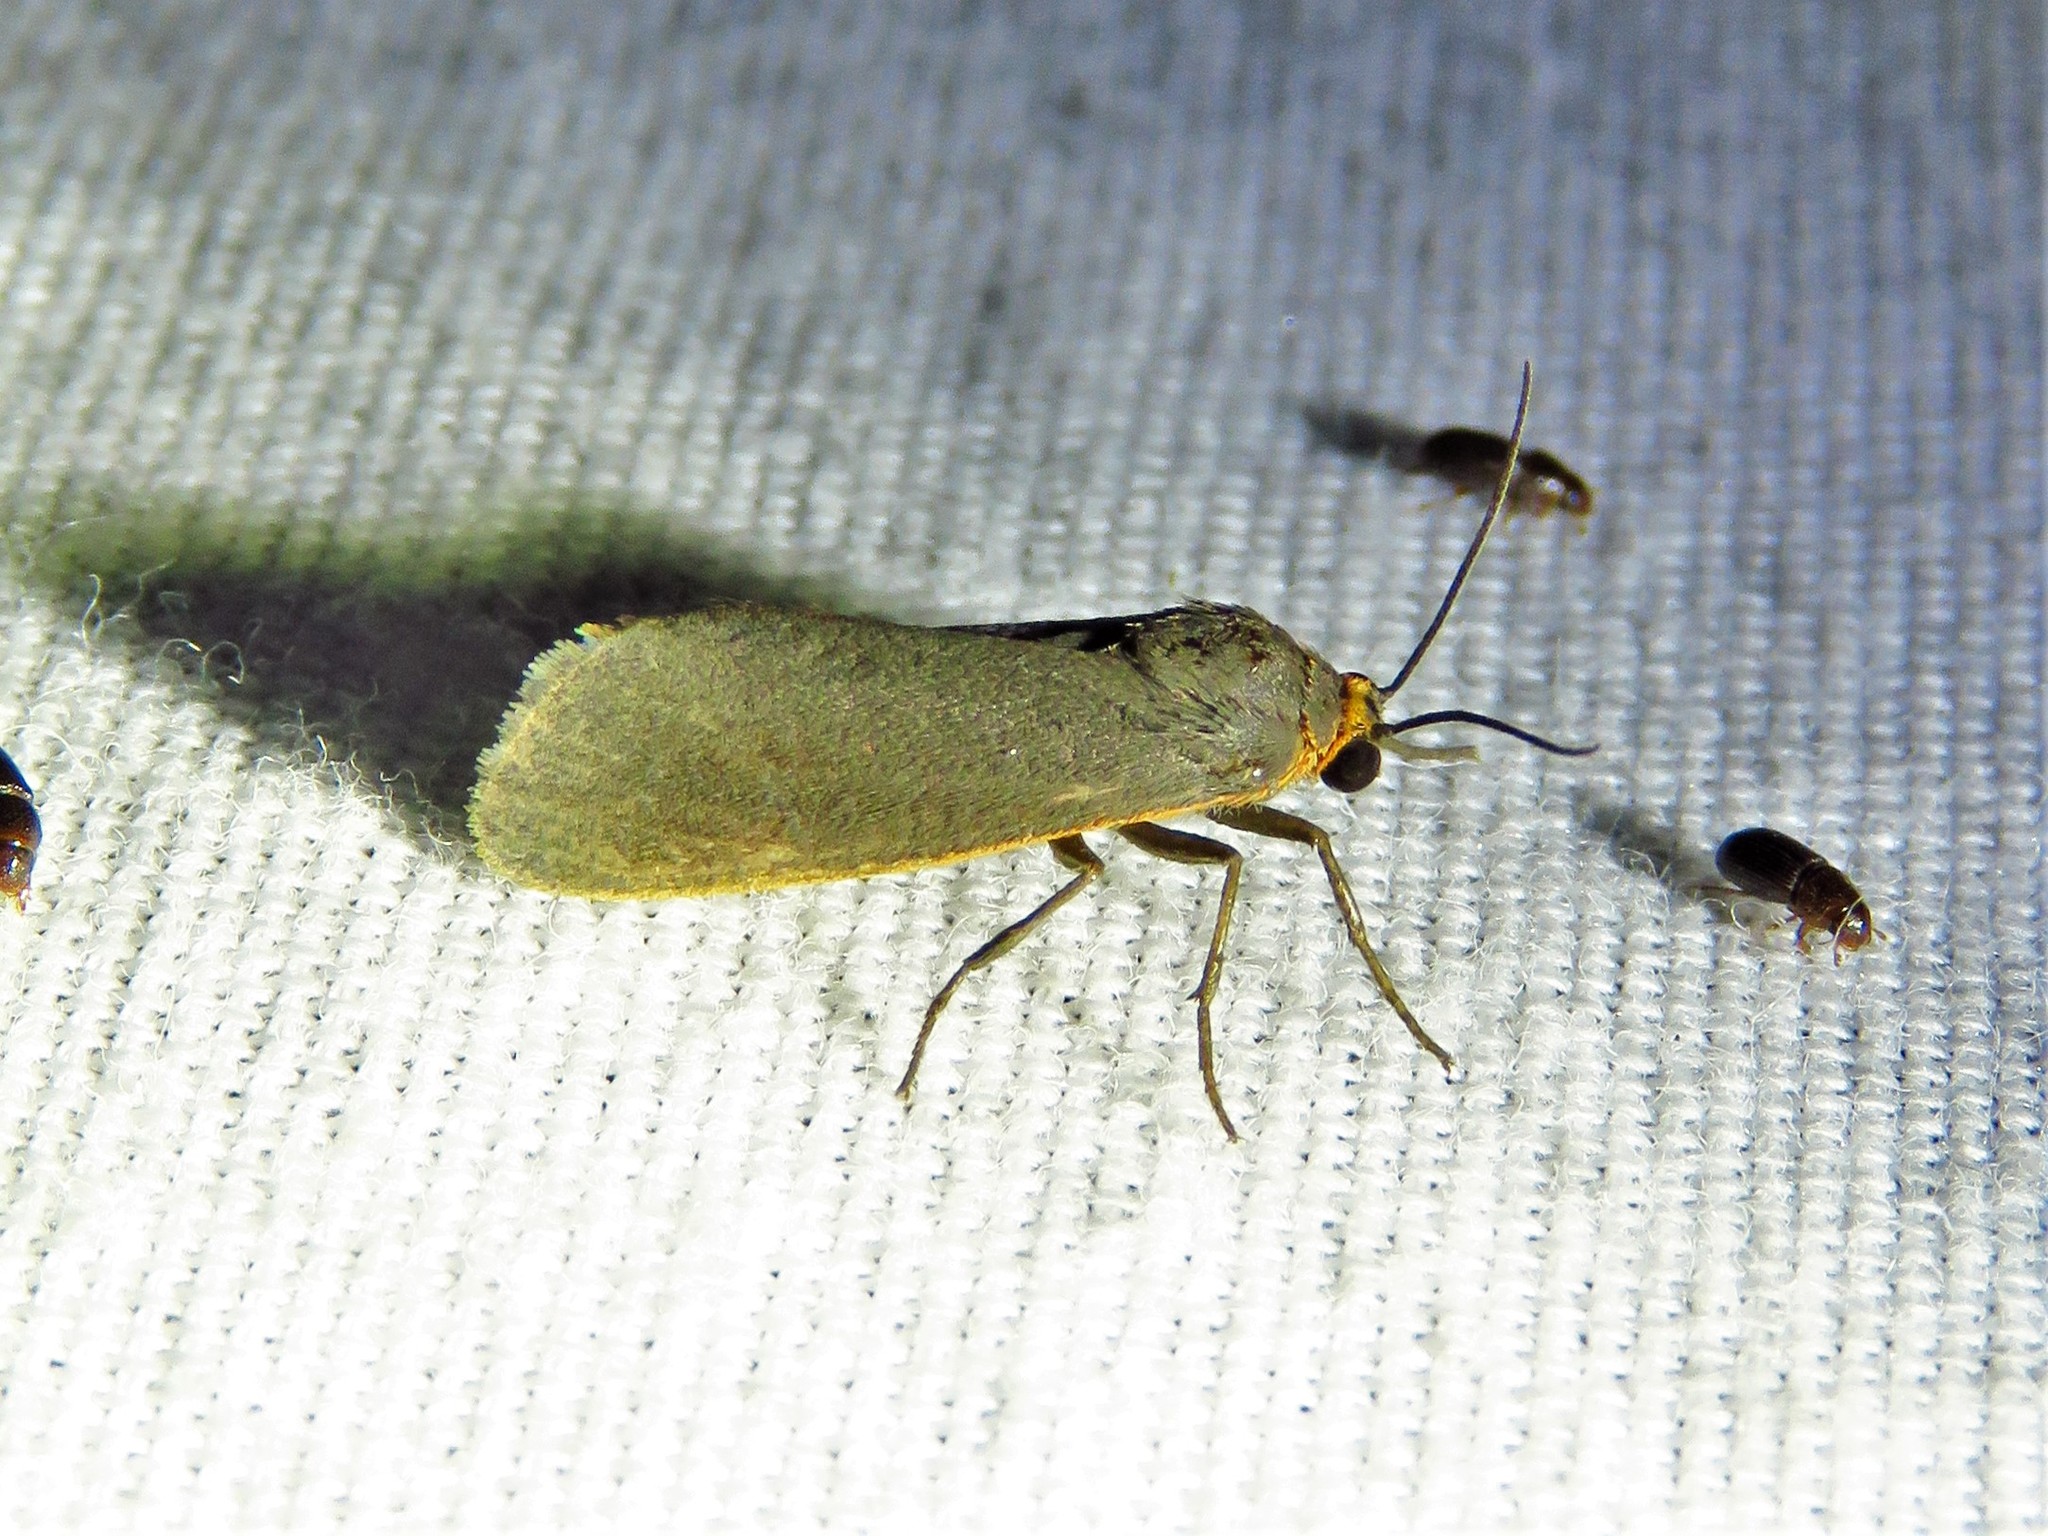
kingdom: Animalia
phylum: Arthropoda
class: Insecta
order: Lepidoptera
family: Erebidae
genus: Virbia
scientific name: Virbia laeta
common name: Joyful holomelina moth
